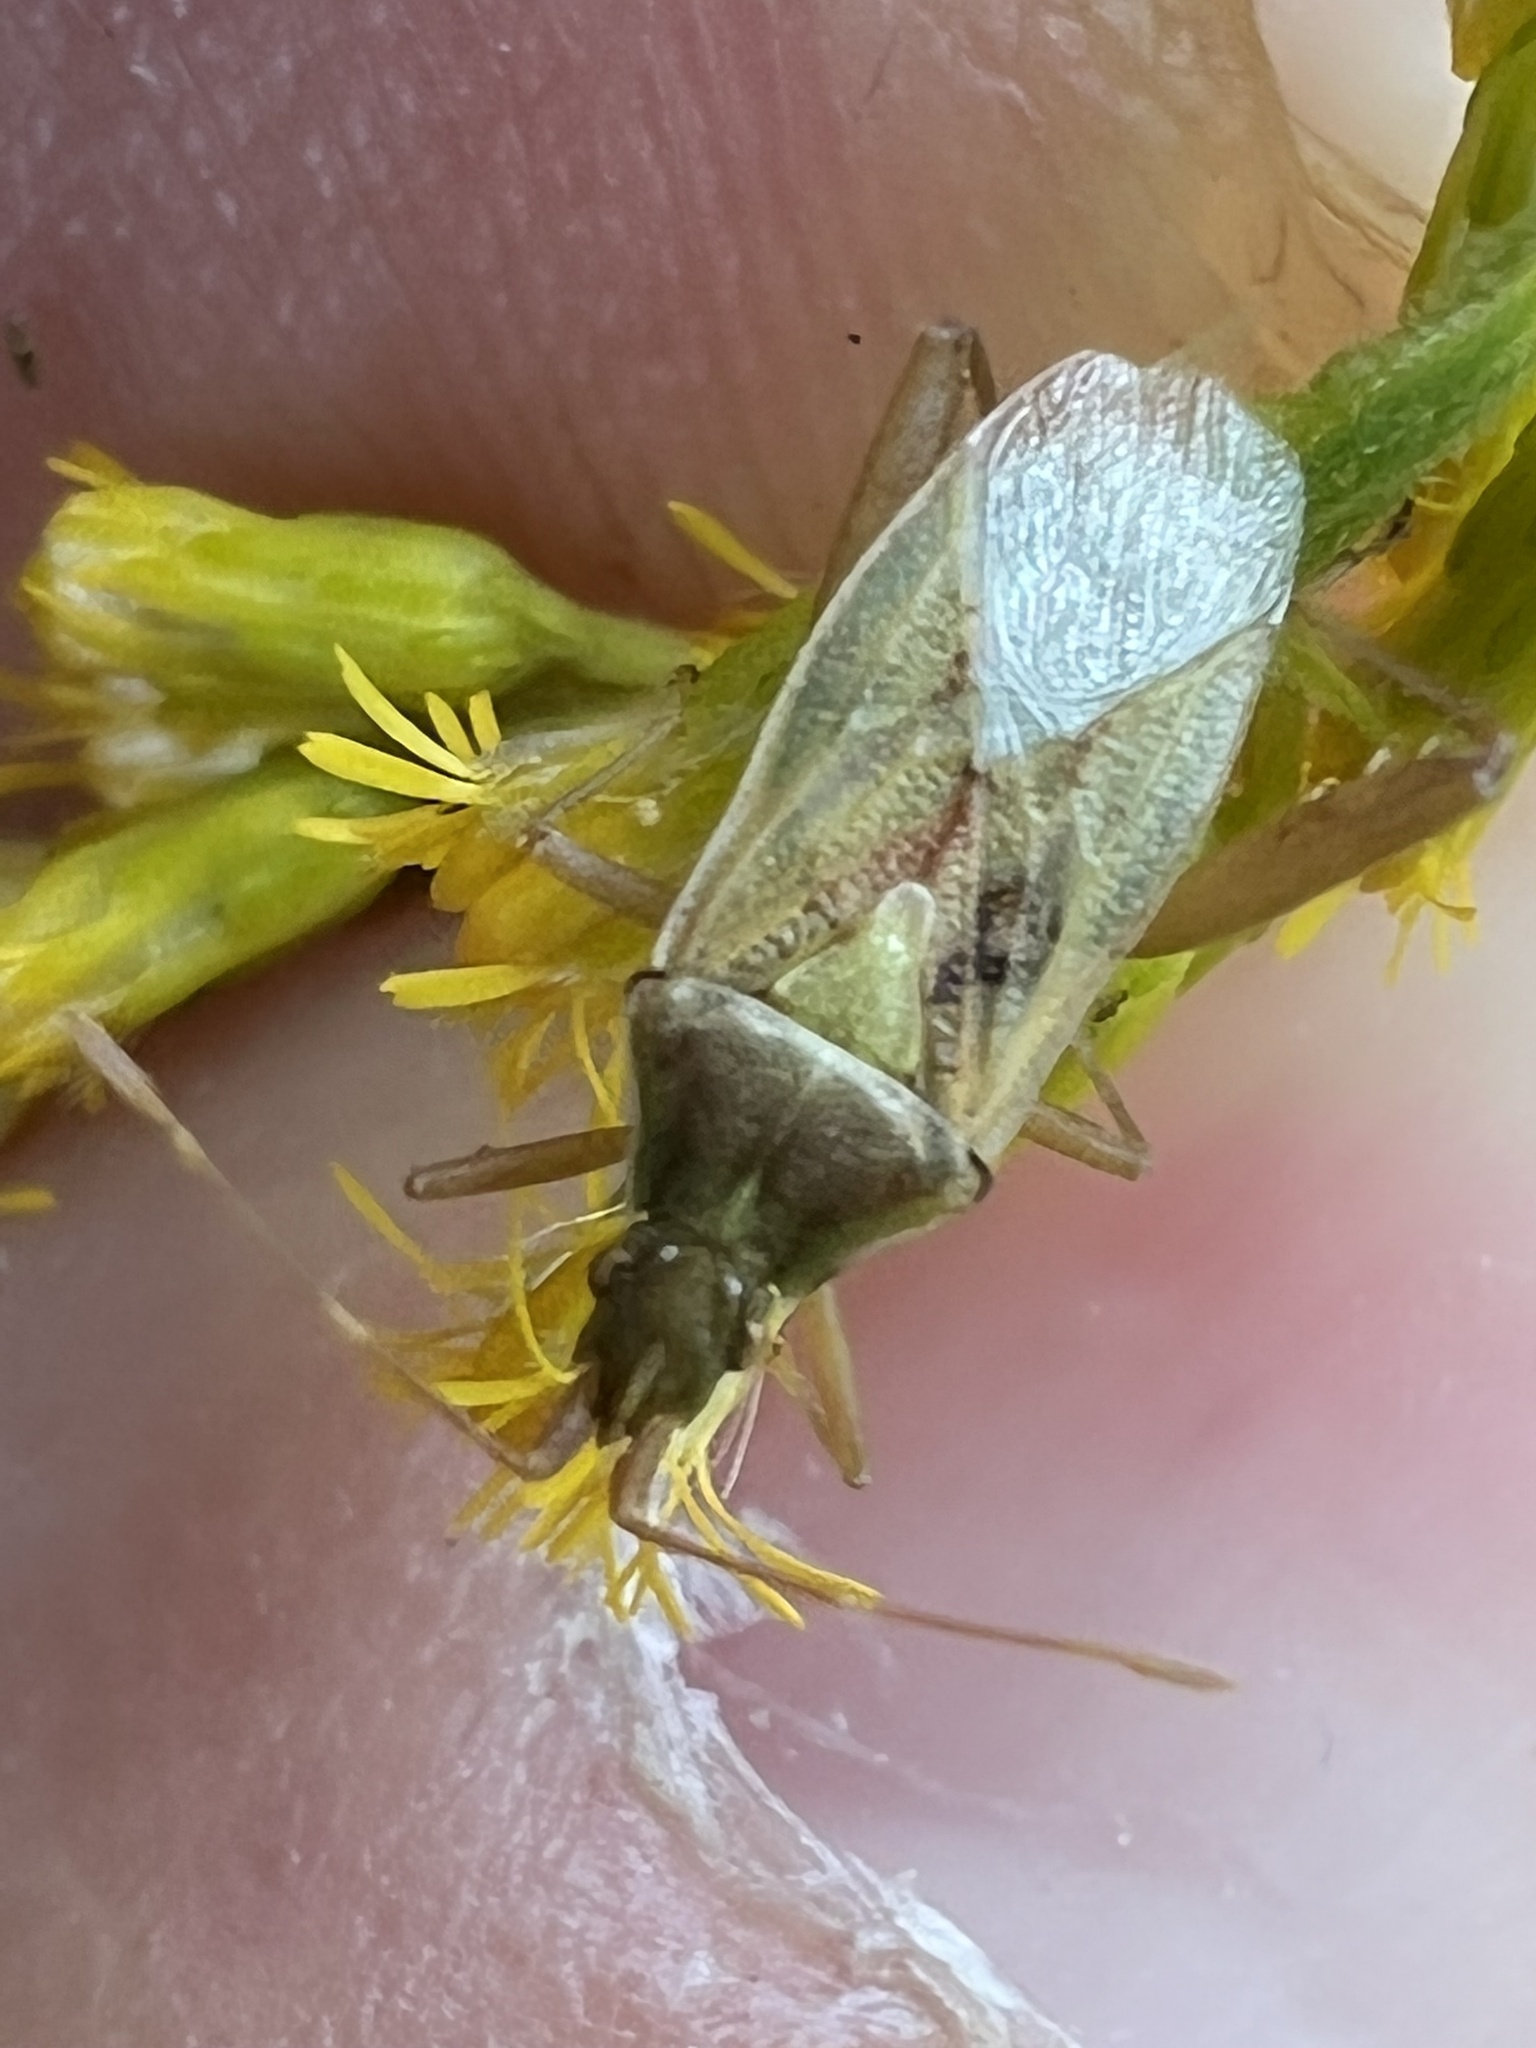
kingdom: Animalia
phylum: Arthropoda
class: Insecta
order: Hemiptera
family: Rhopalidae
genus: Harmostes
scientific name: Harmostes reflexulus
